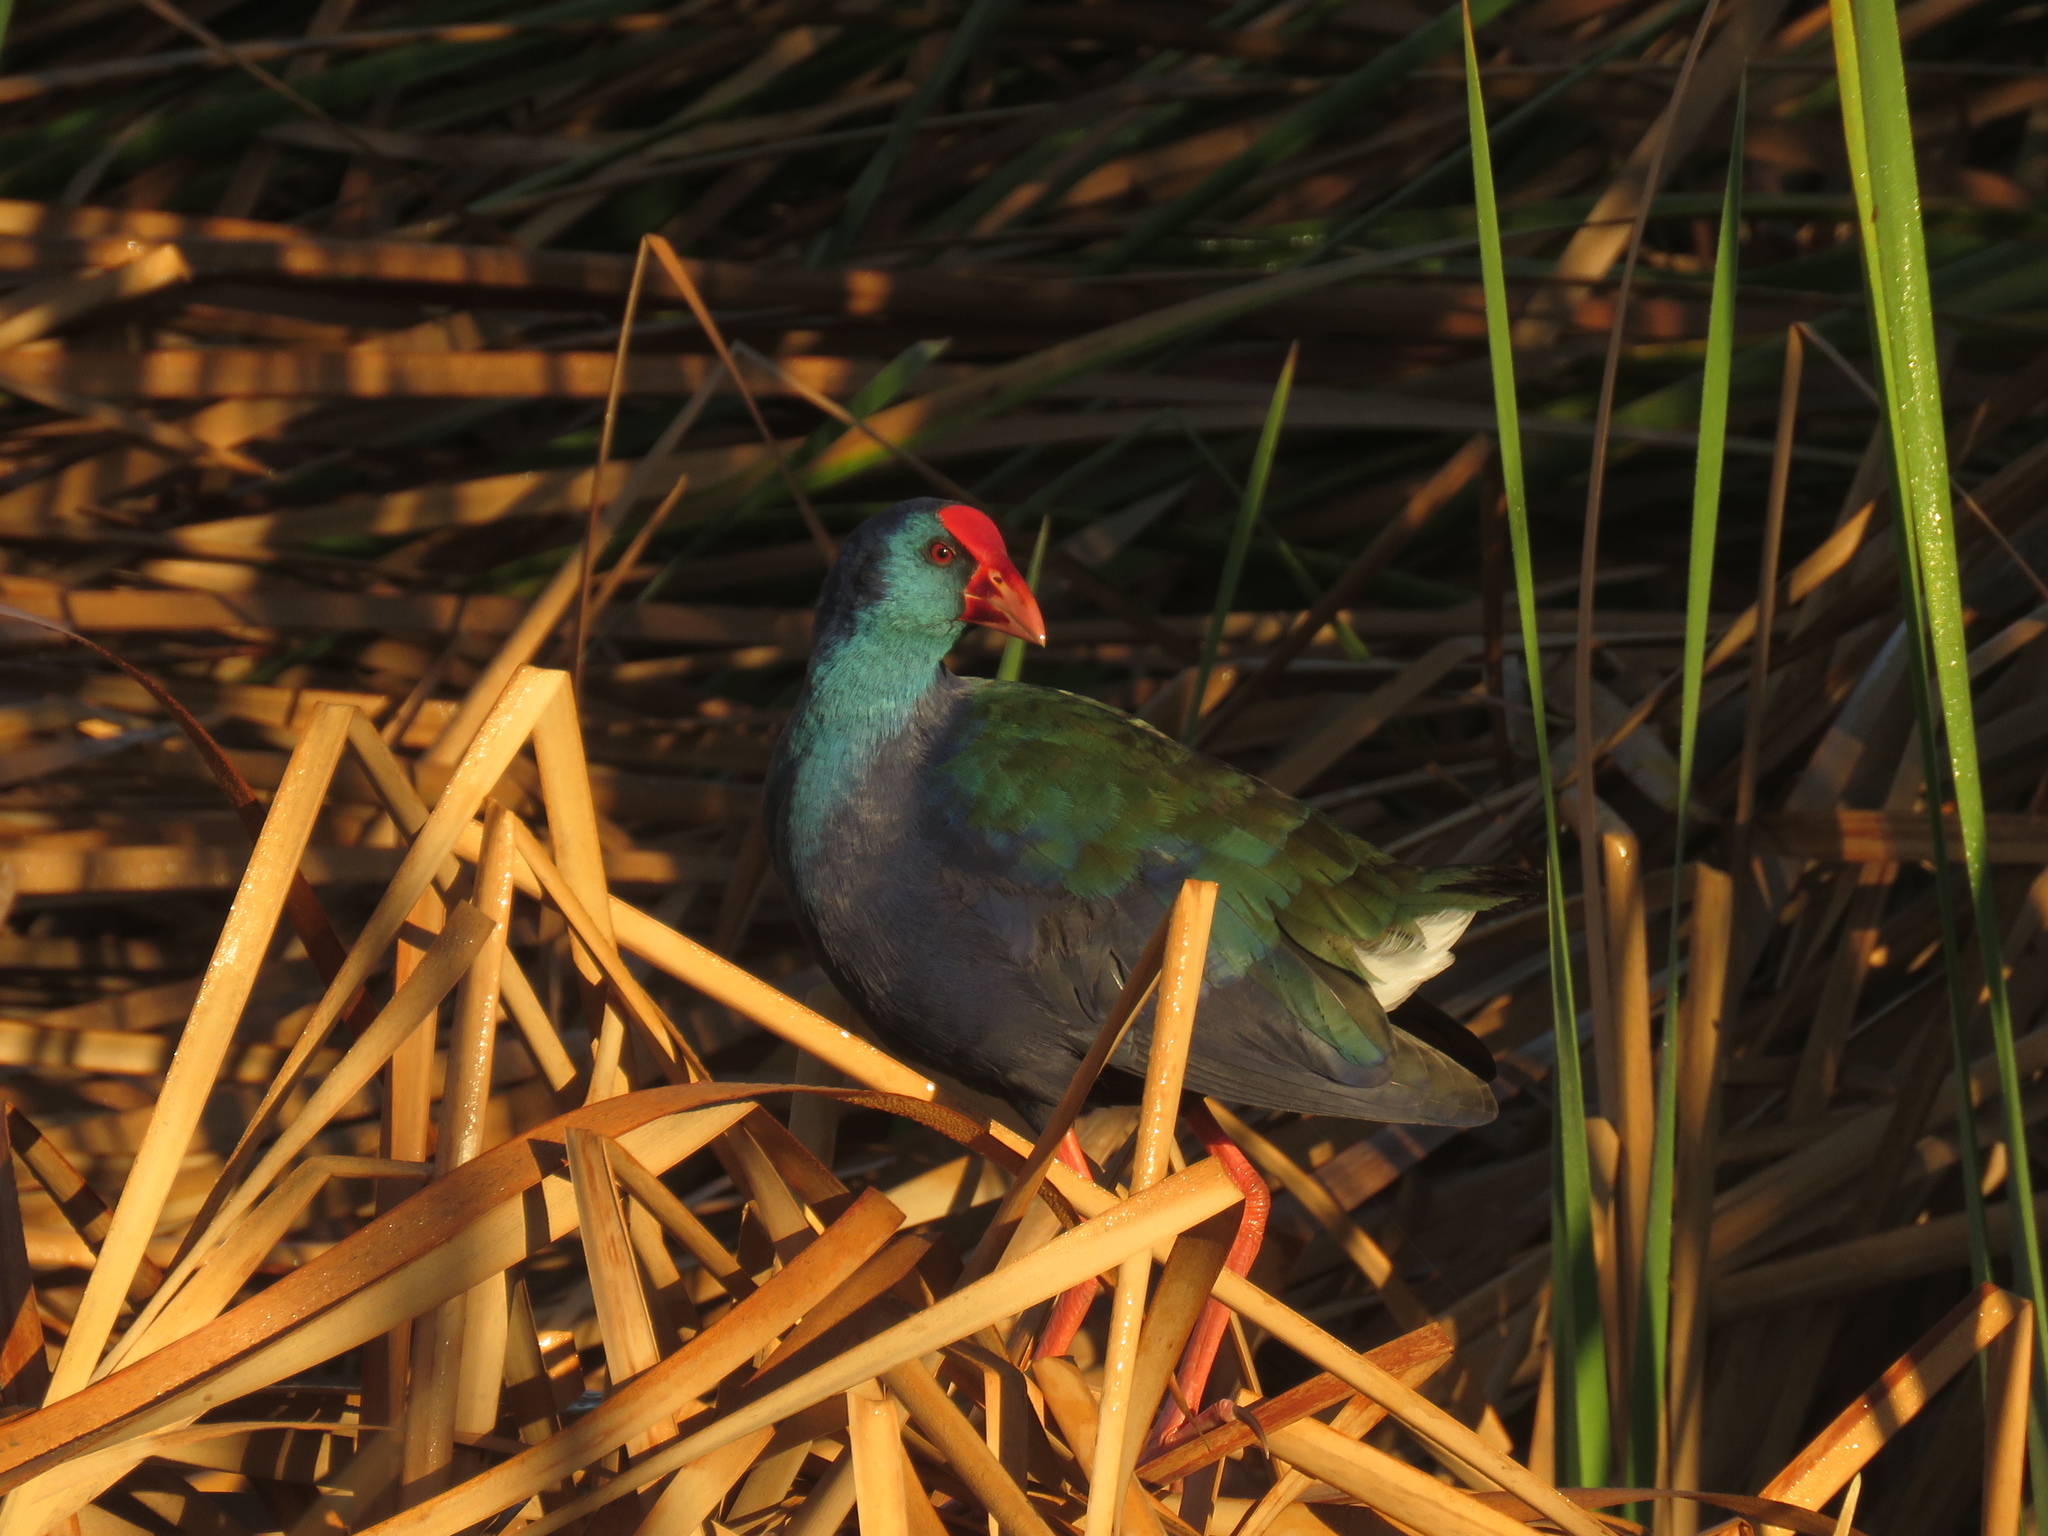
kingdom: Animalia
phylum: Chordata
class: Aves
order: Gruiformes
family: Rallidae
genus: Porphyrio
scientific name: Porphyrio porphyrio
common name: Purple swamphen
